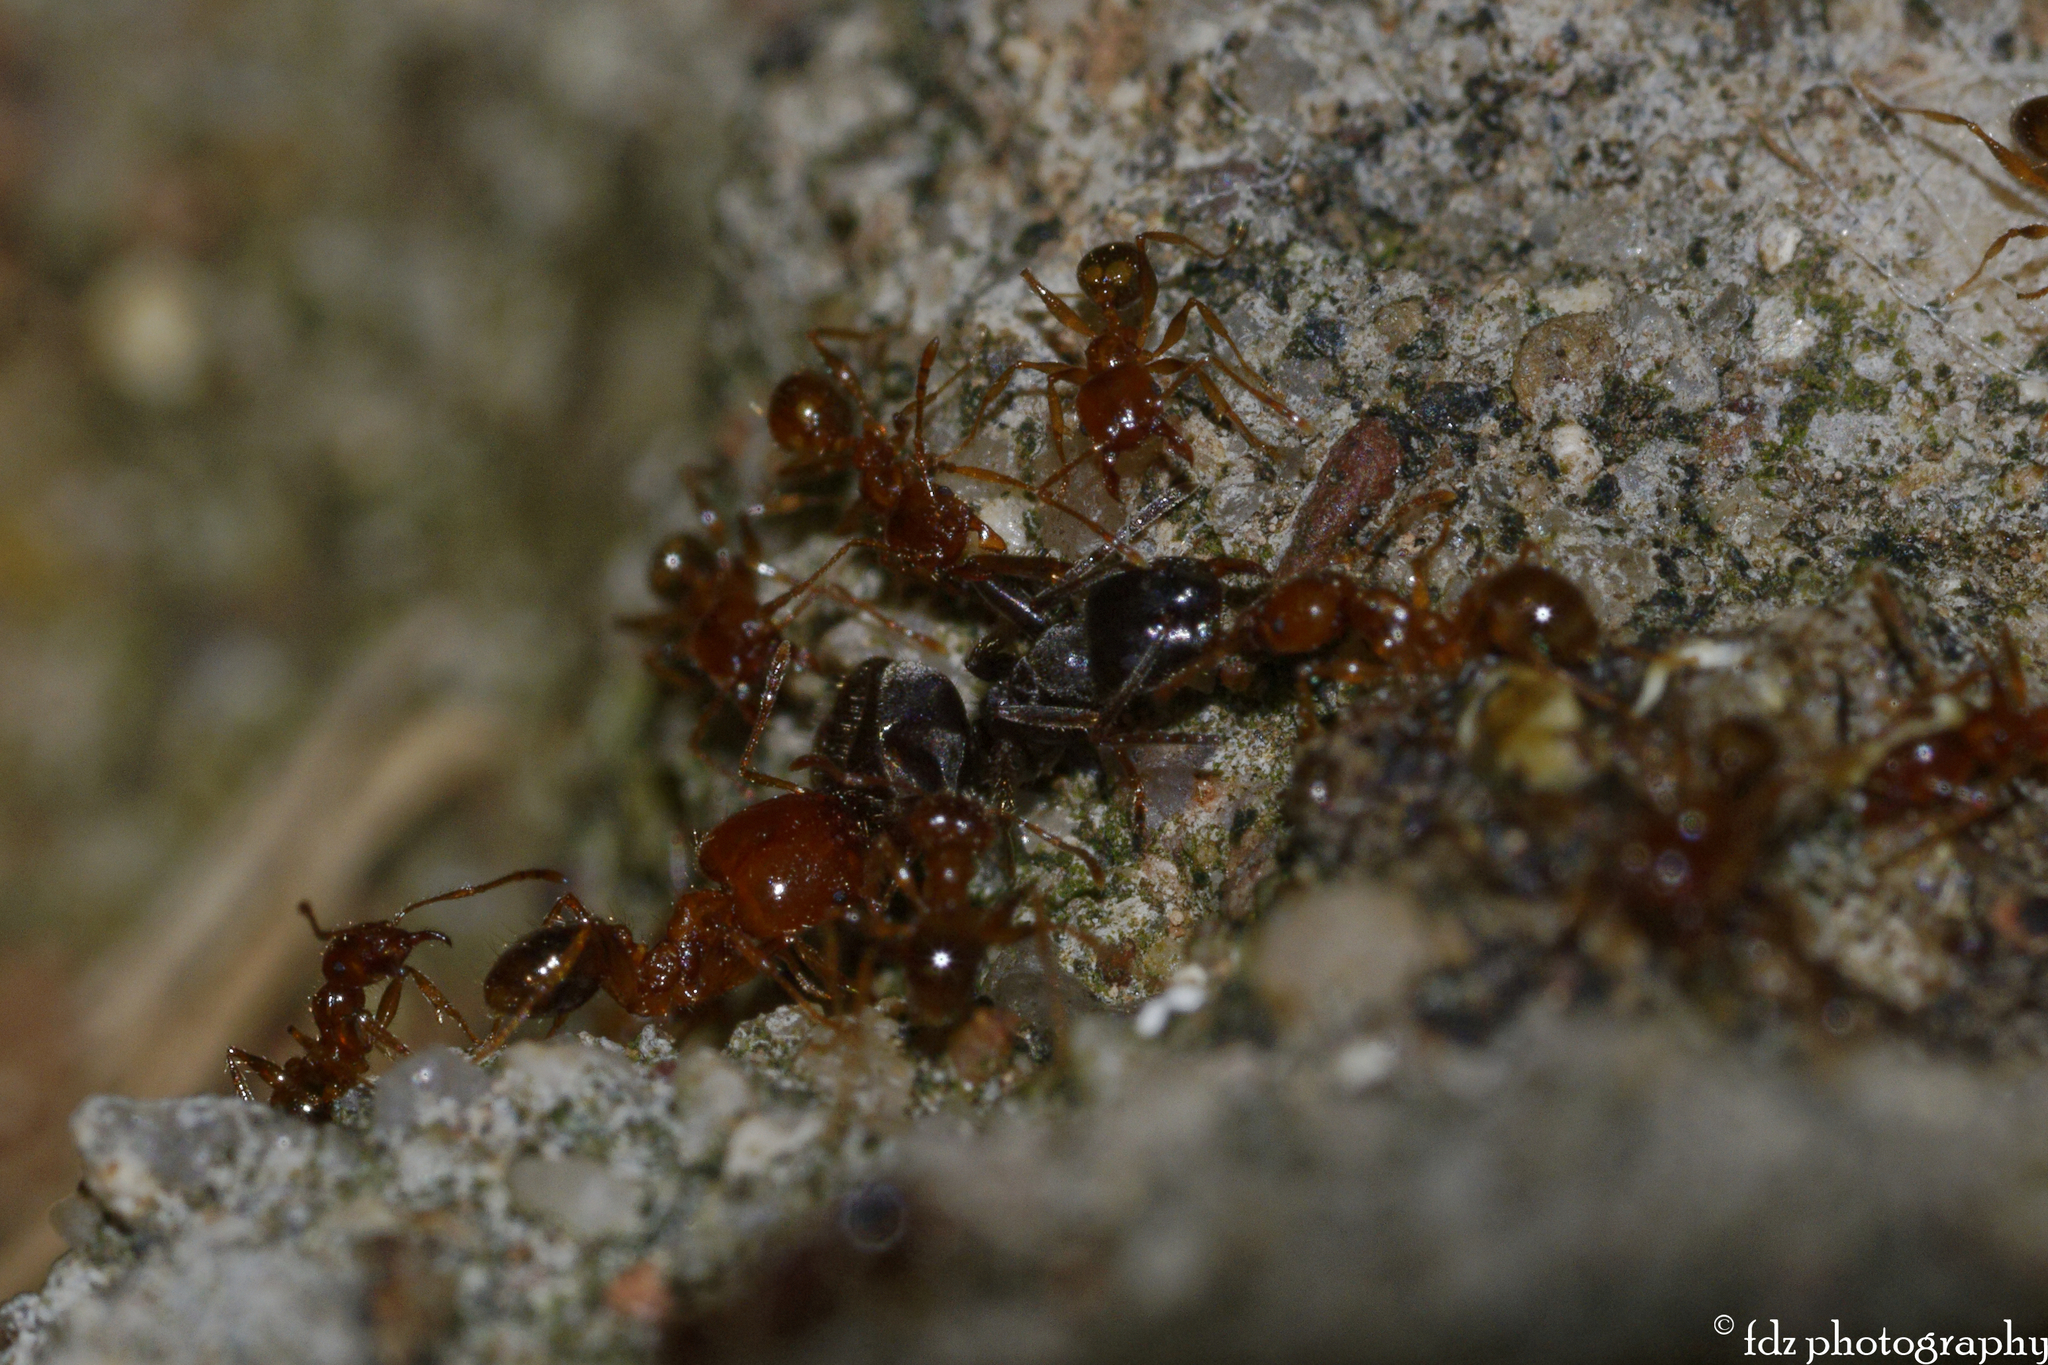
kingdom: Animalia
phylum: Arthropoda
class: Insecta
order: Hymenoptera
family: Formicidae
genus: Pheidole
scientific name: Pheidole pallidula
